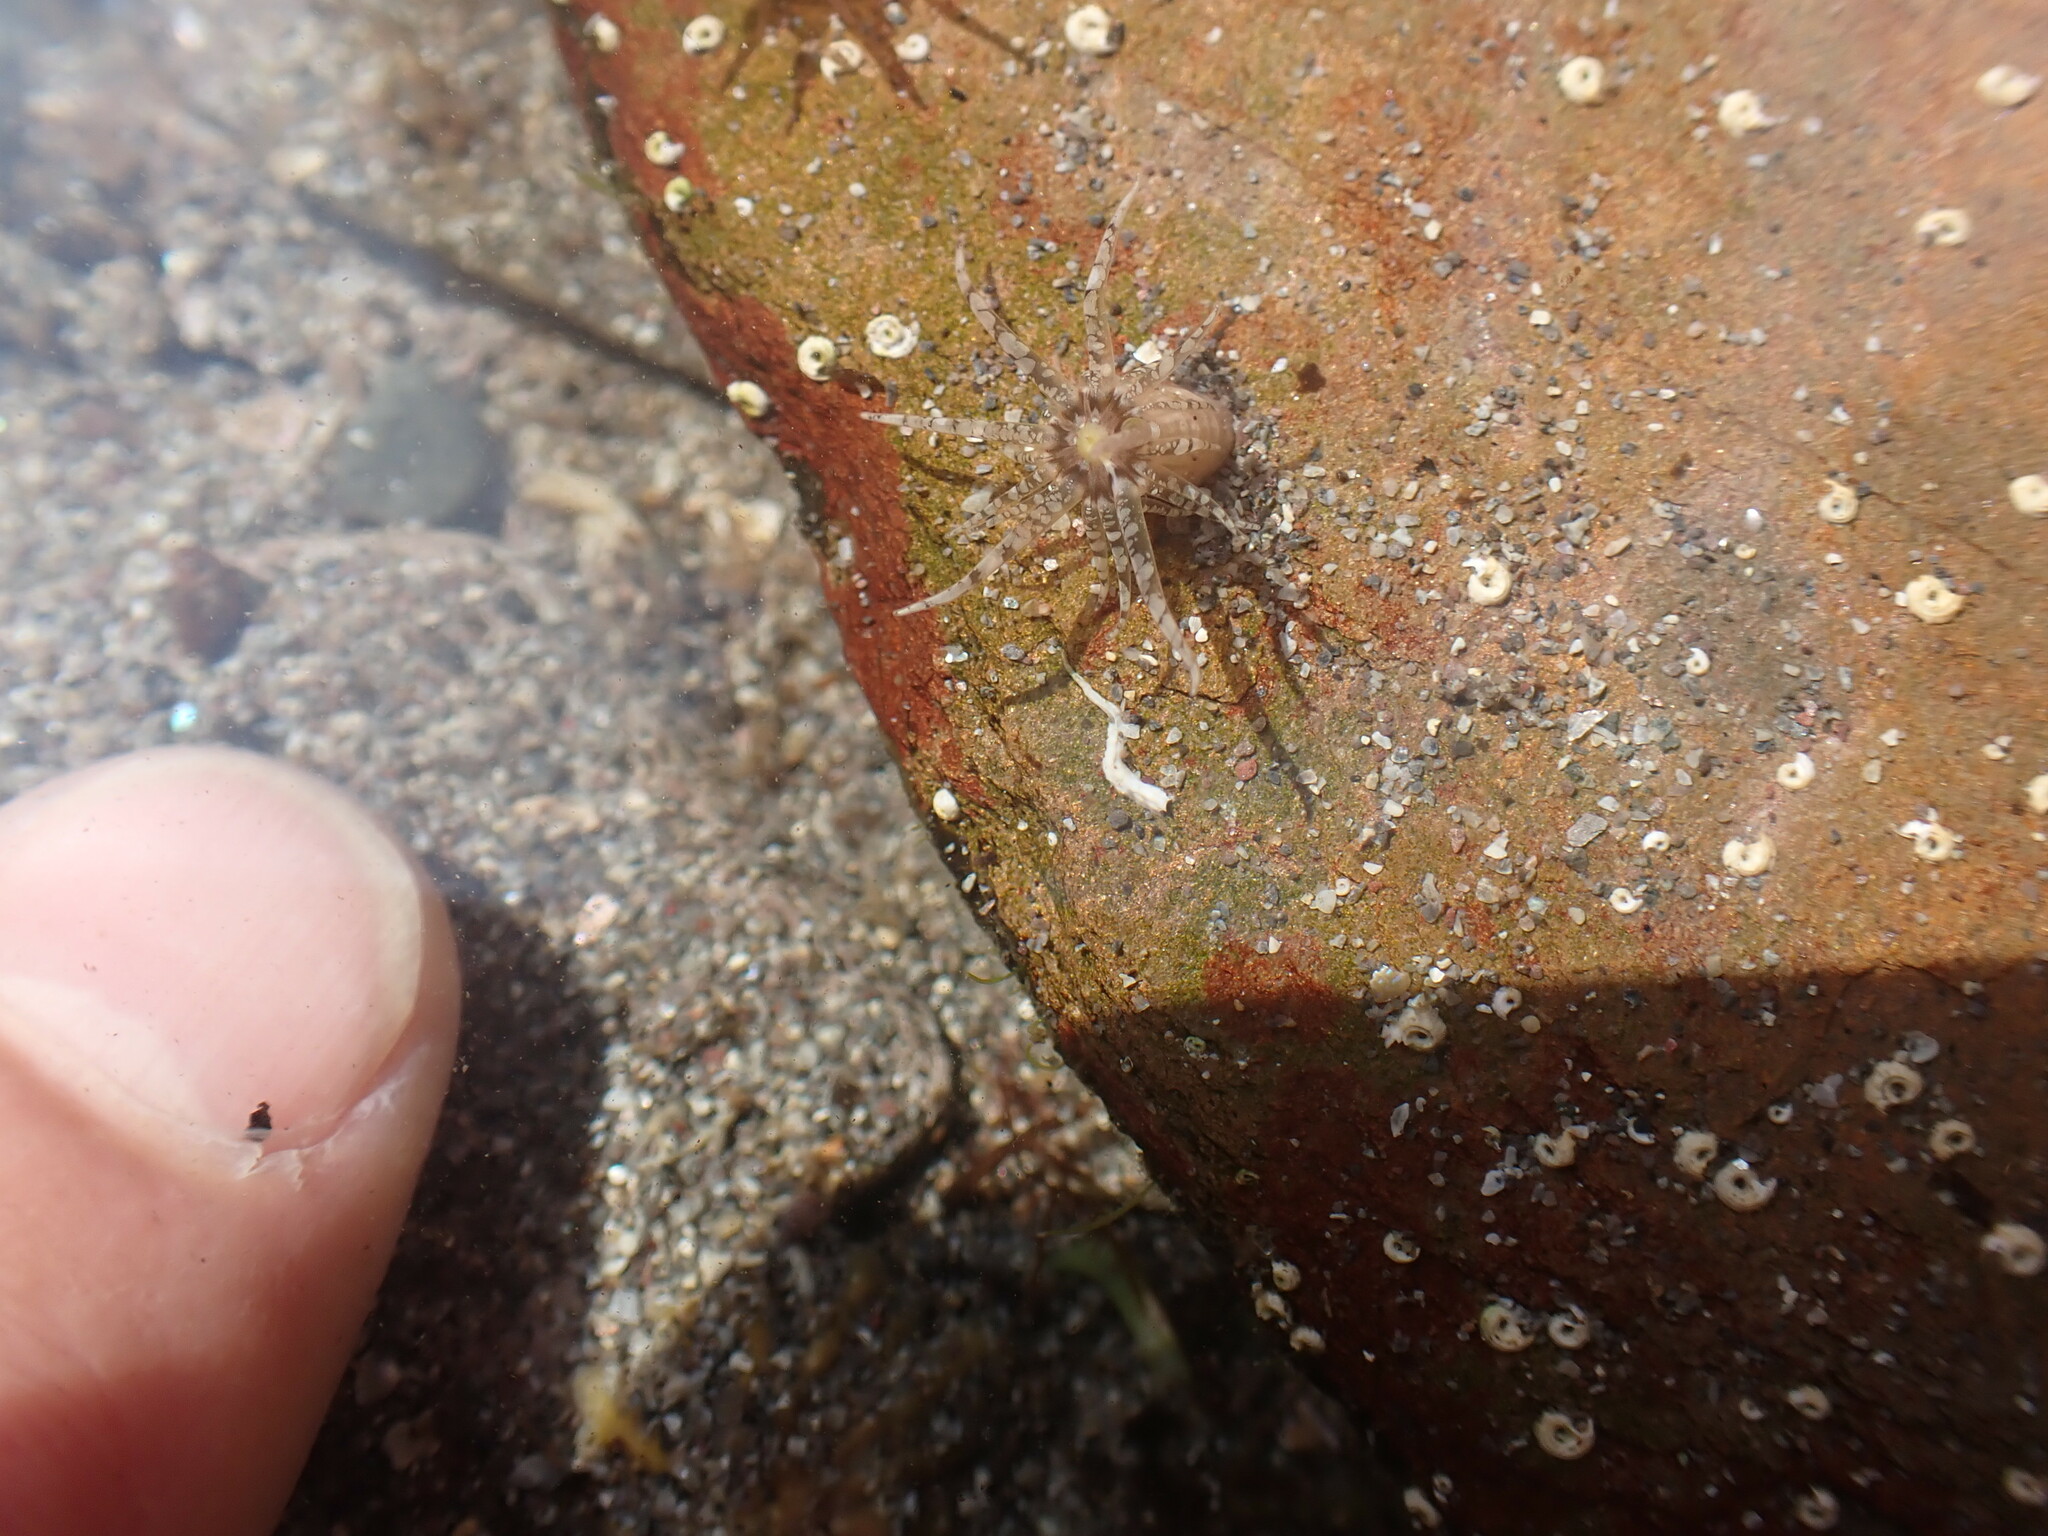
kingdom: Animalia
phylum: Cnidaria
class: Anthozoa
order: Actiniaria
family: Actiniidae
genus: Bunodactis
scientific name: Bunodactis verrucosa
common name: Gem anemone
